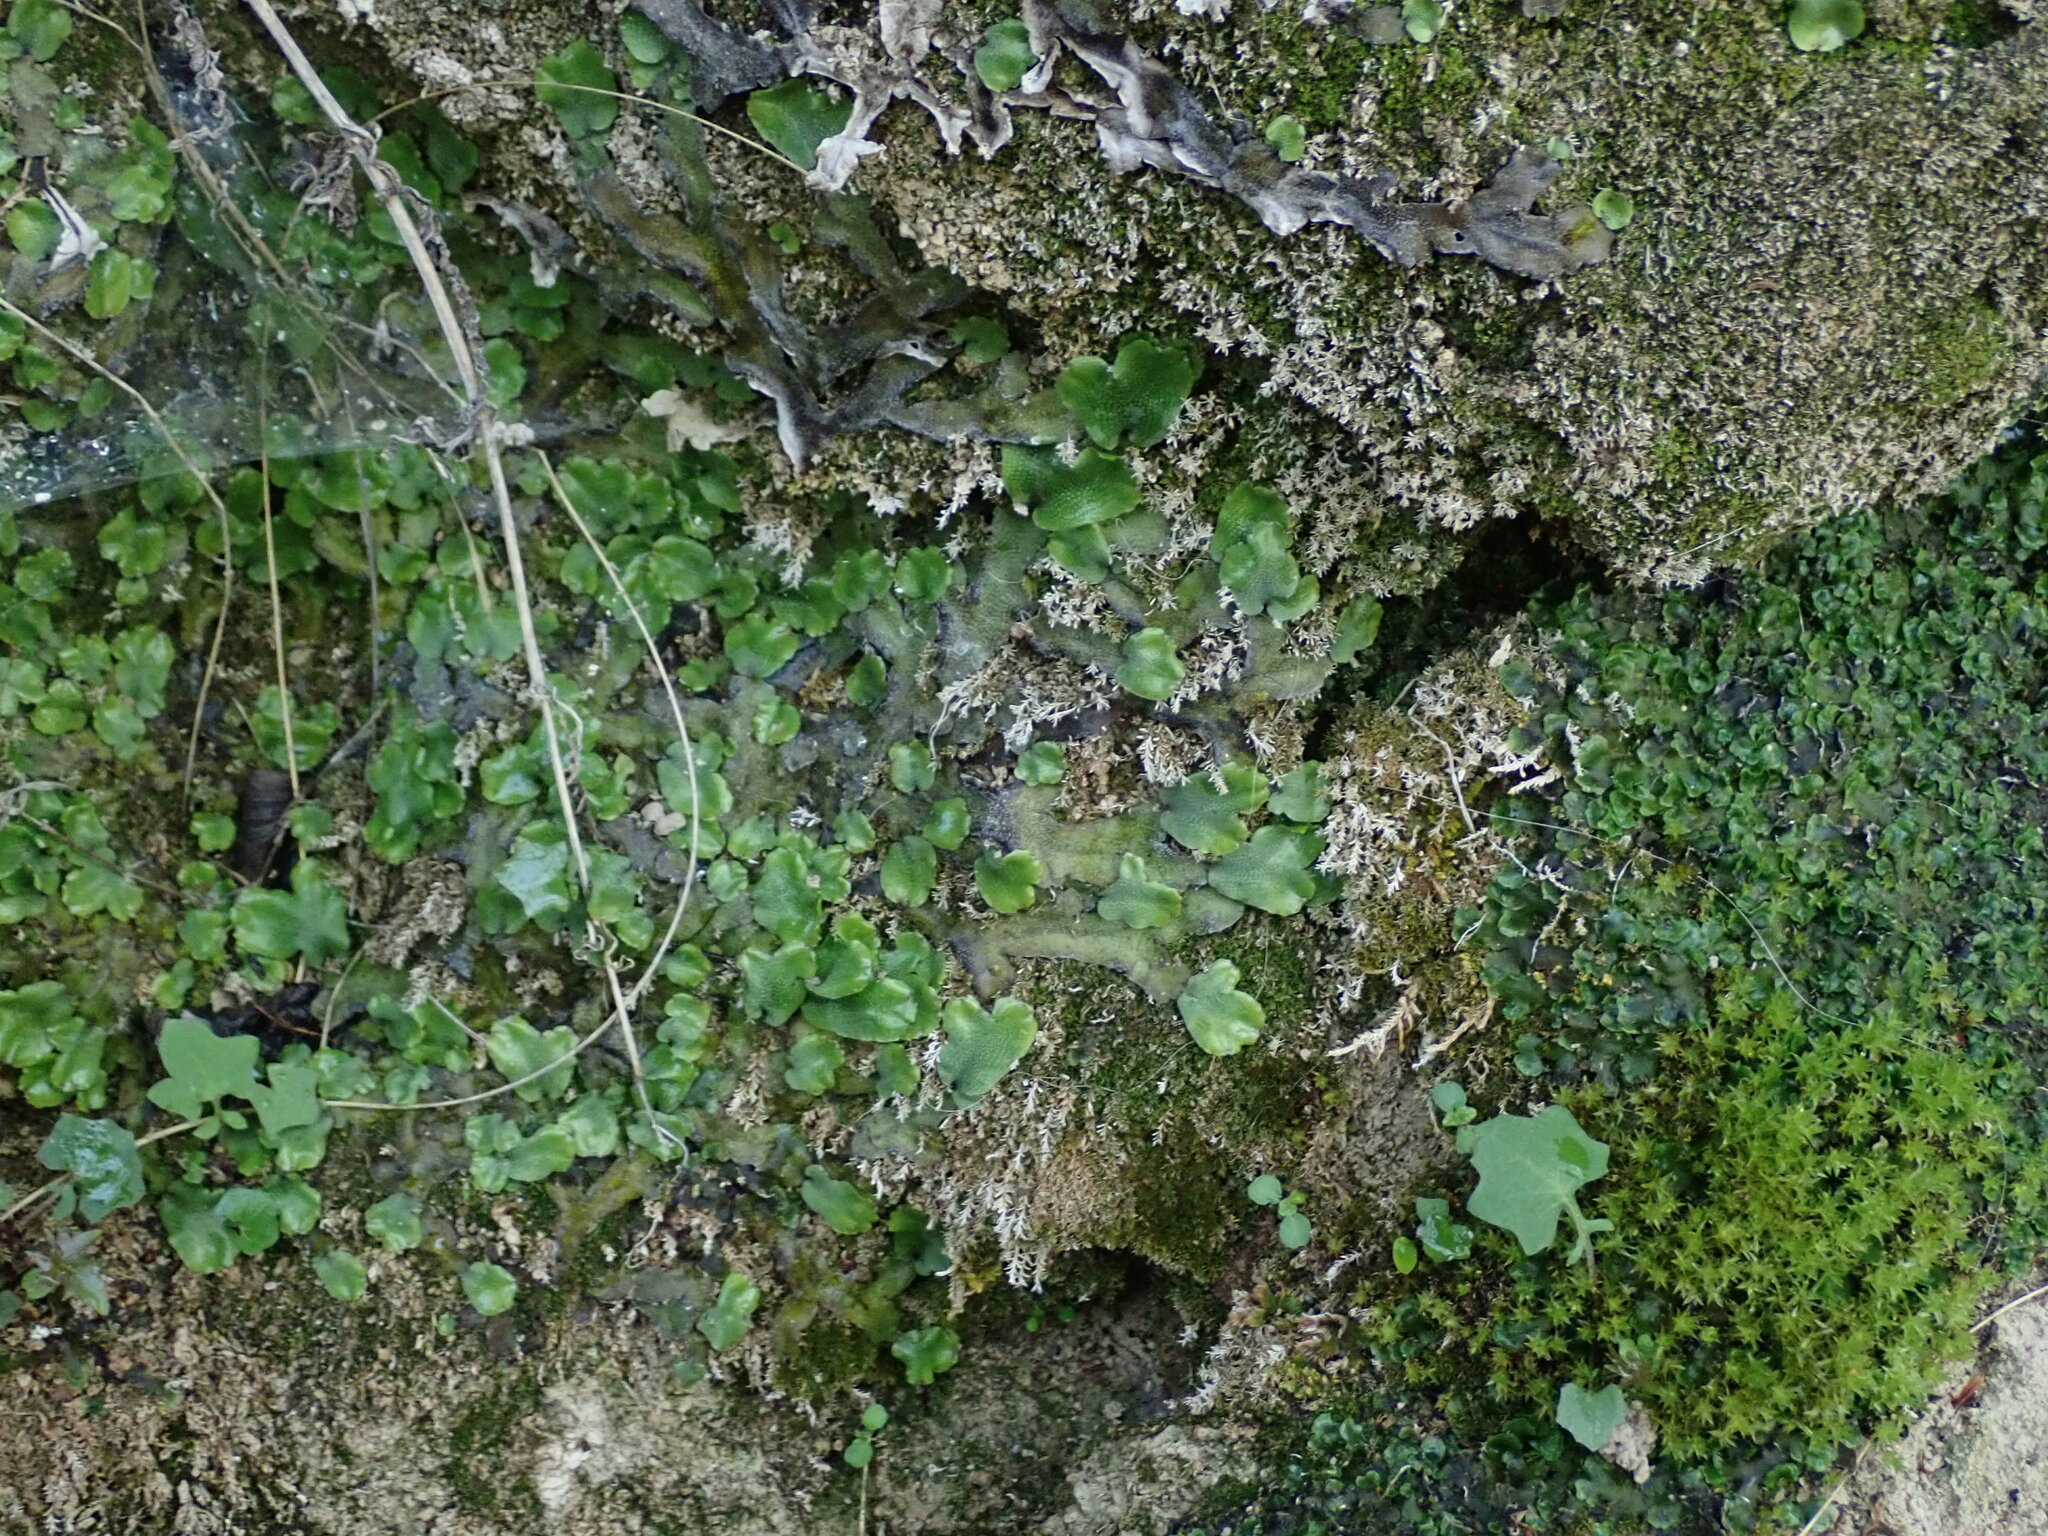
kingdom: Plantae
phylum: Marchantiophyta
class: Marchantiopsida
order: Marchantiales
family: Conocephalaceae
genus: Conocephalum
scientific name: Conocephalum conicum
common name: Great scented liverwort
